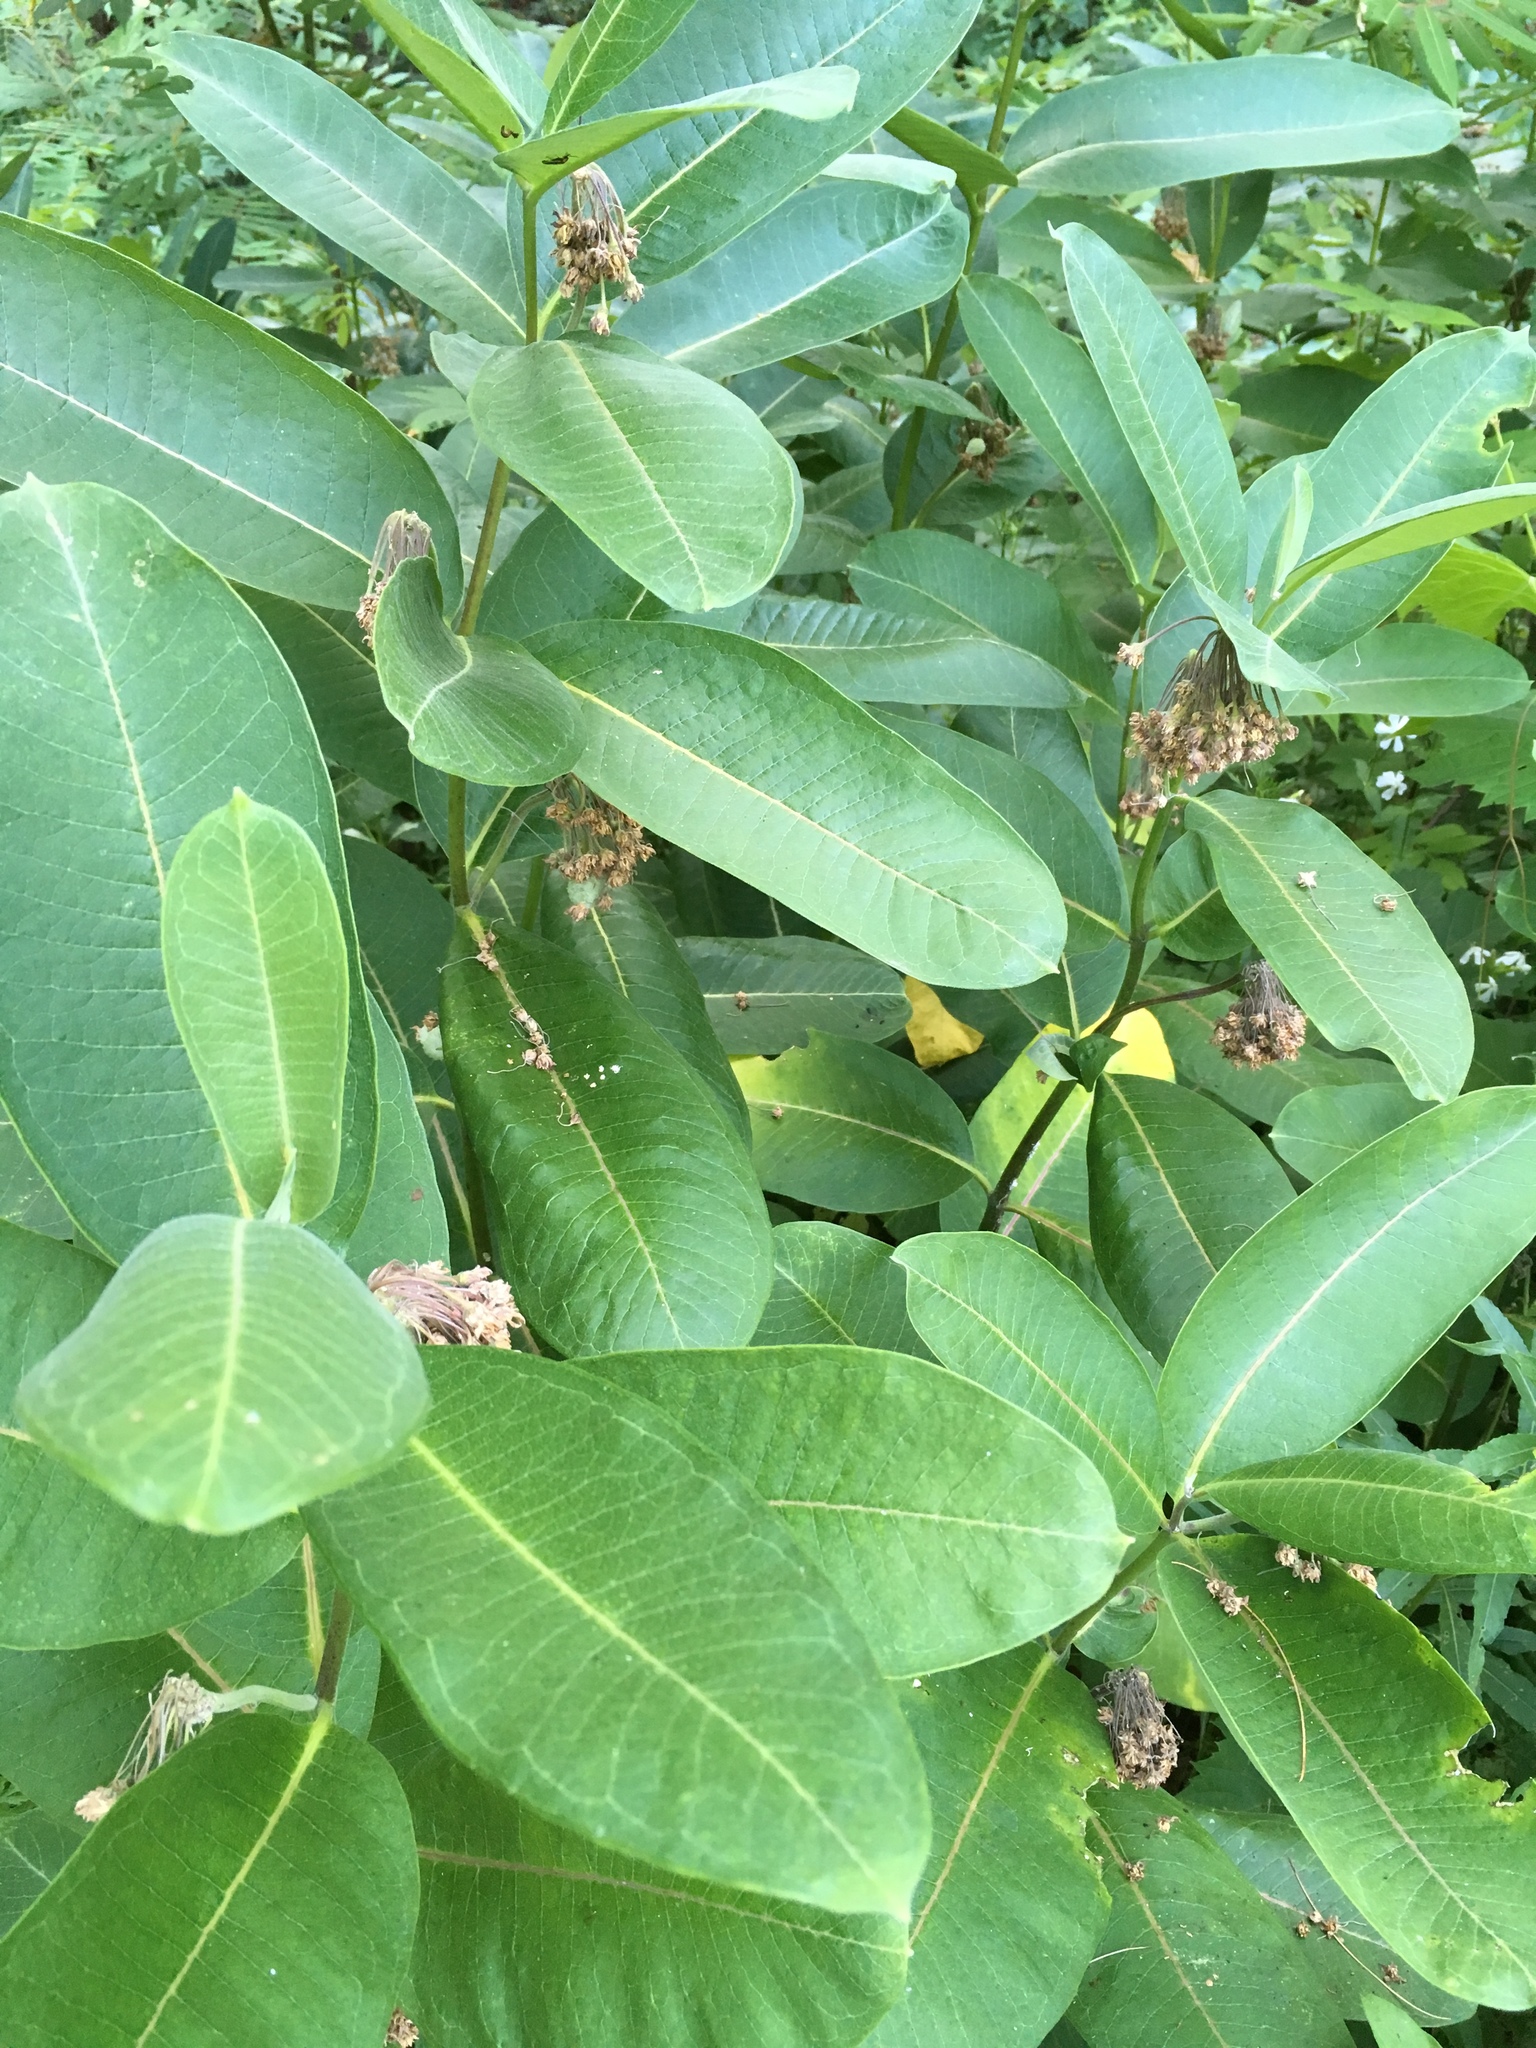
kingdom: Plantae
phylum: Tracheophyta
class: Magnoliopsida
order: Gentianales
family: Apocynaceae
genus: Asclepias
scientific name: Asclepias syriaca
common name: Common milkweed
